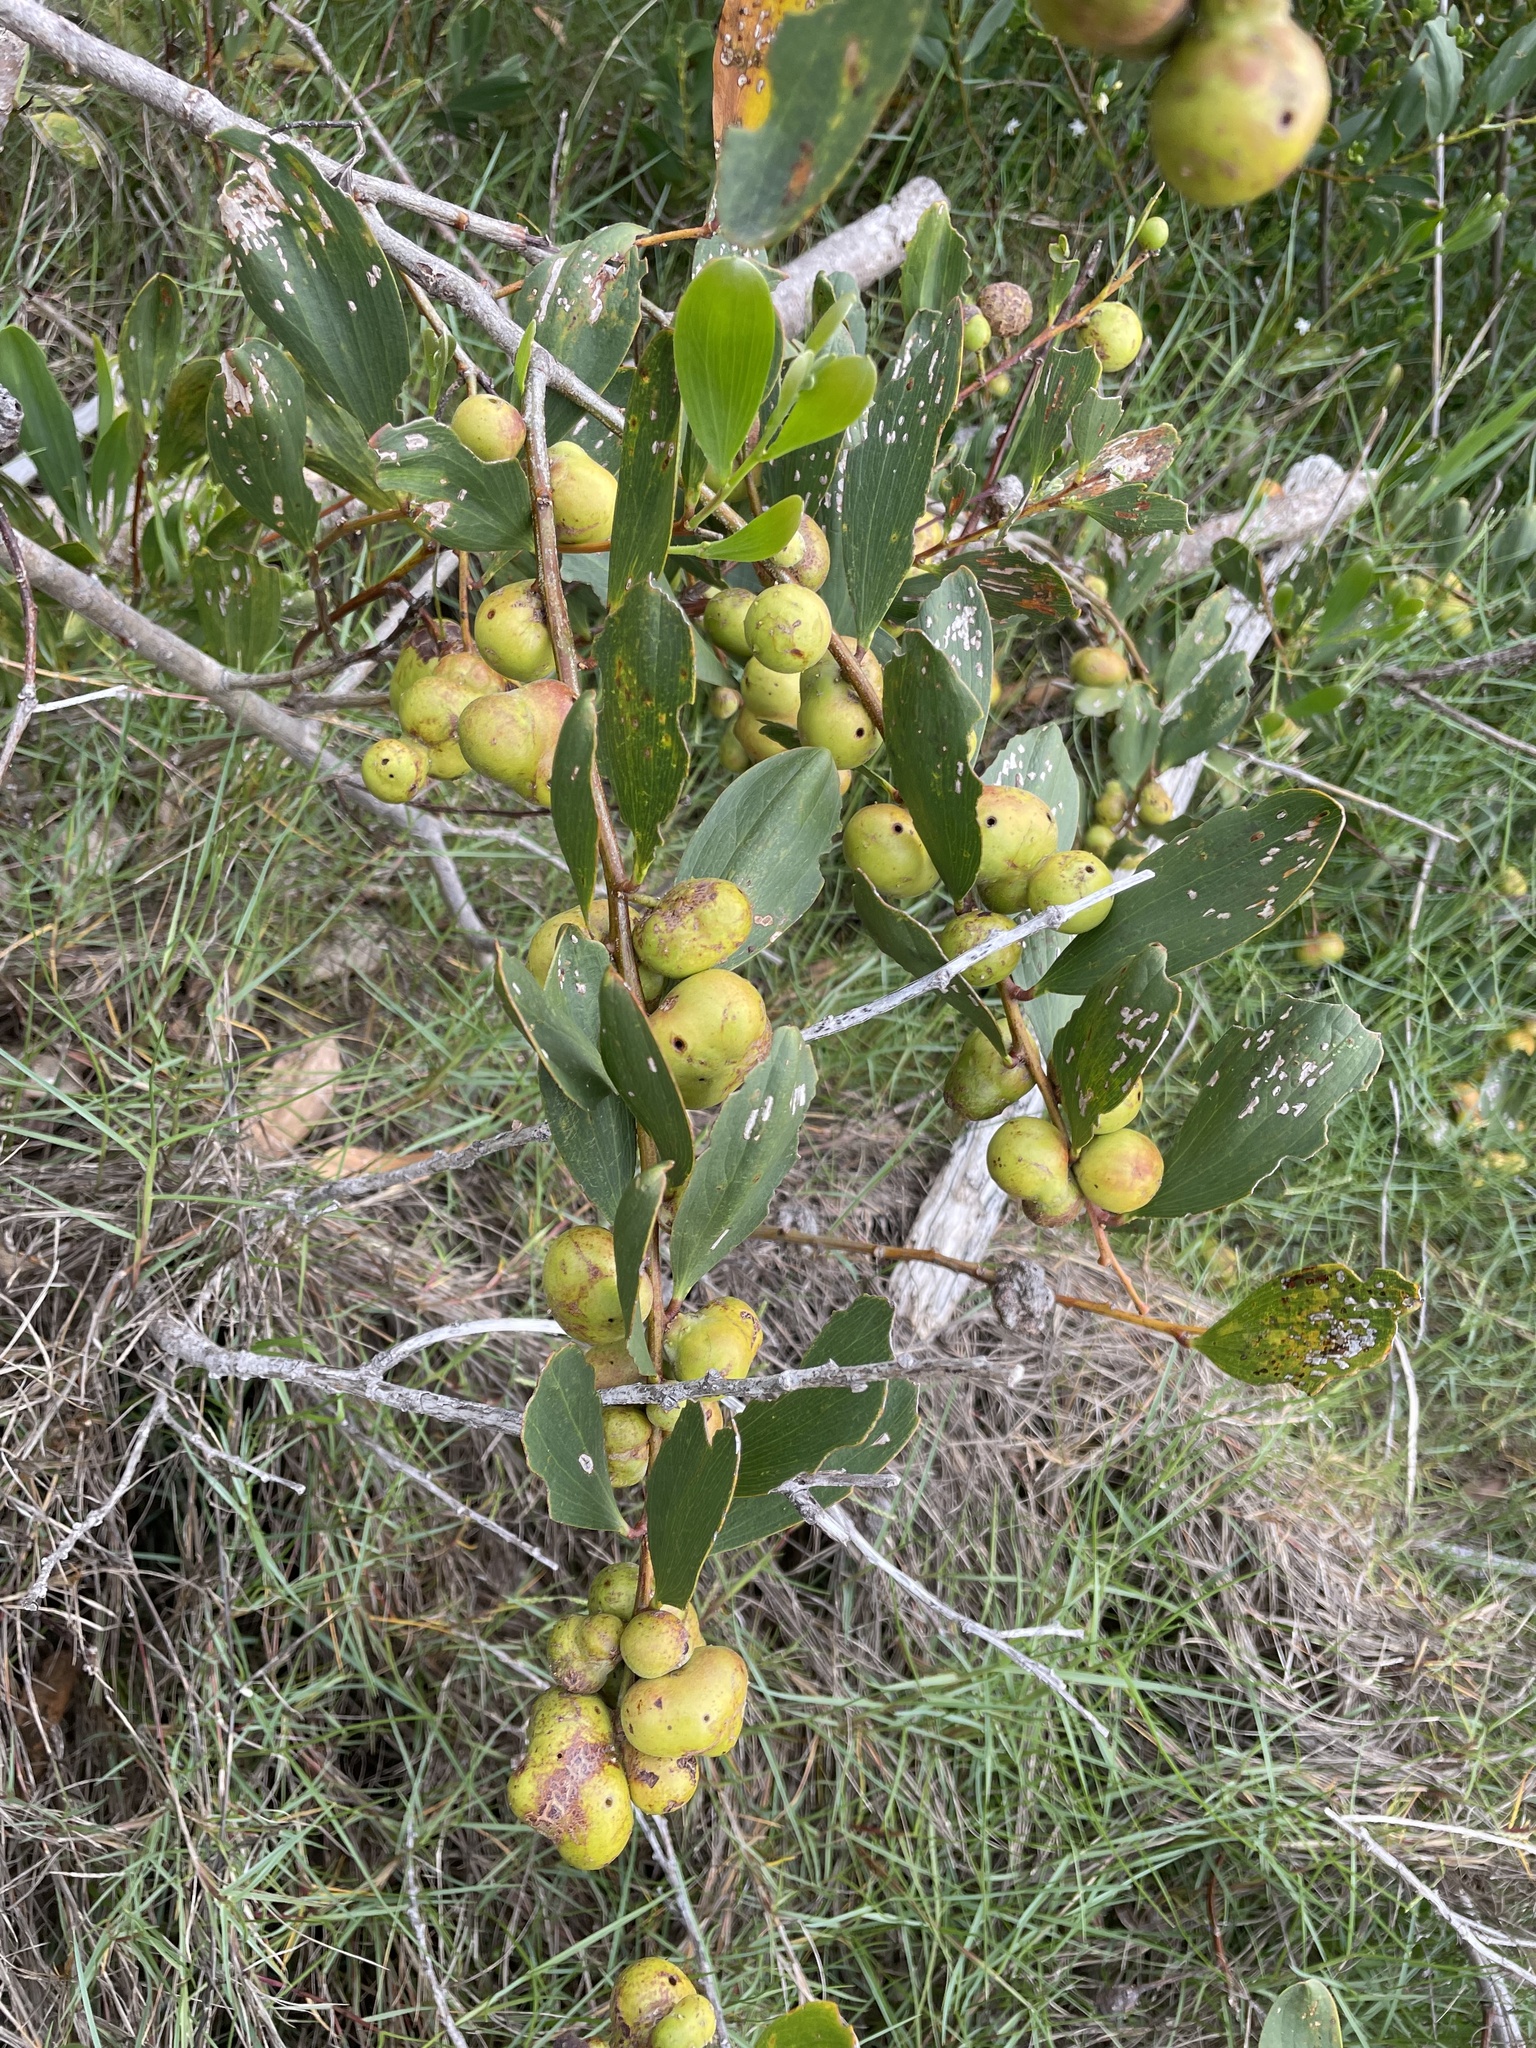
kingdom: Plantae
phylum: Tracheophyta
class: Magnoliopsida
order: Fabales
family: Fabaceae
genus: Acacia
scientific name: Acacia longifolia
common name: Sydney golden wattle
